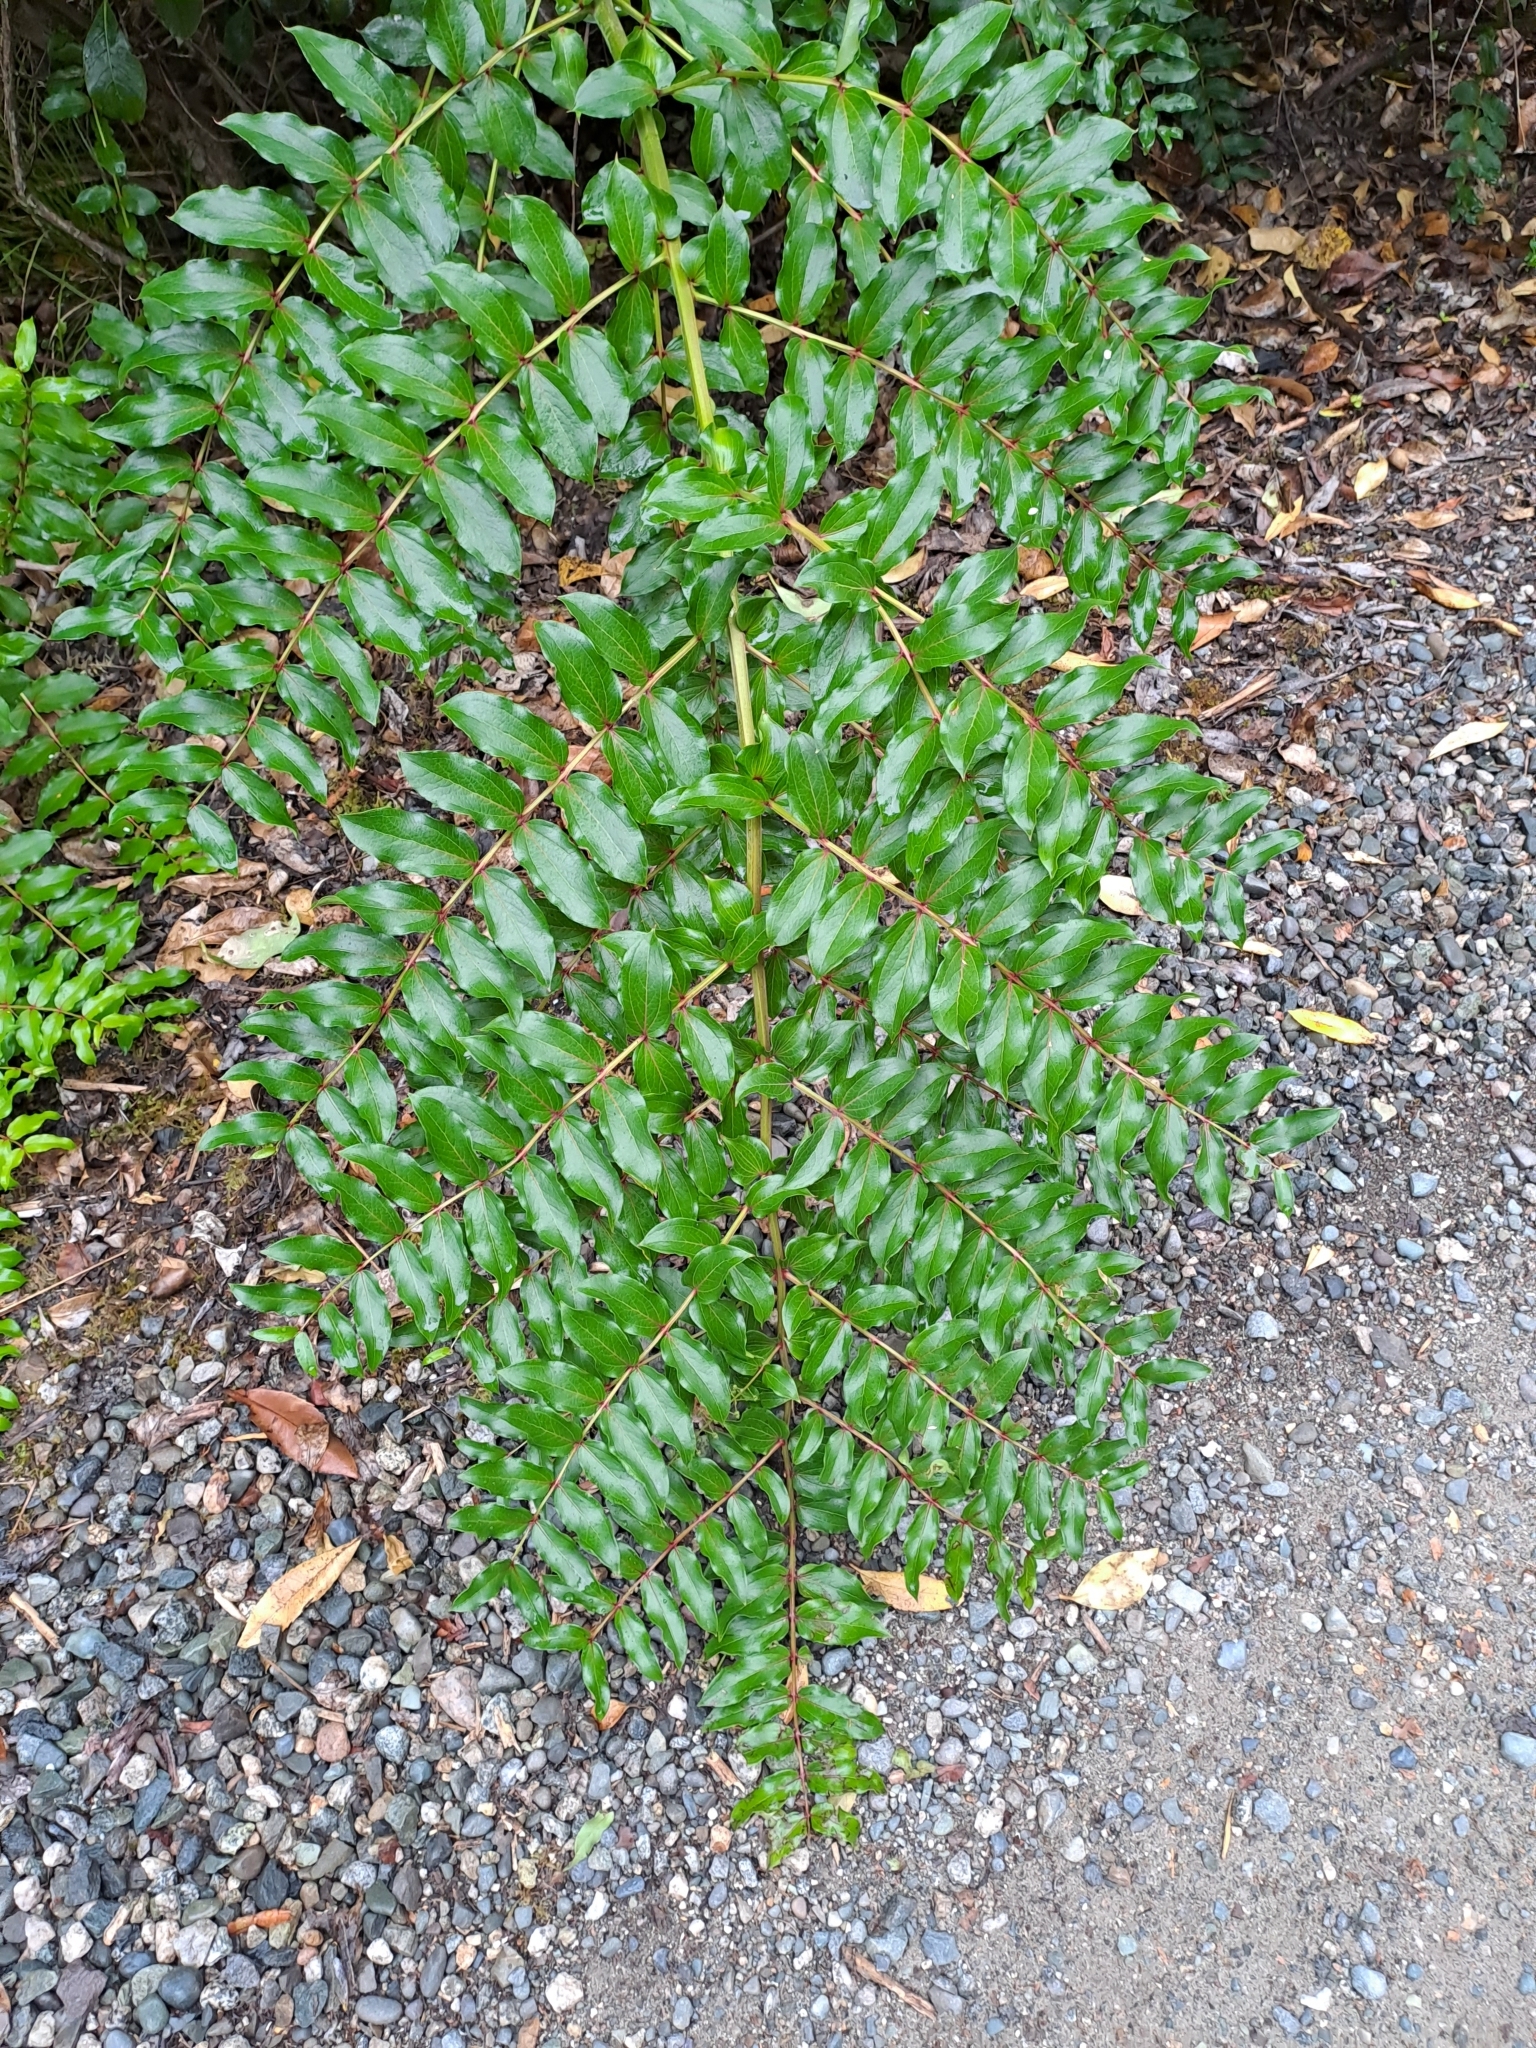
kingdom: Plantae
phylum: Tracheophyta
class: Magnoliopsida
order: Cucurbitales
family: Coriariaceae
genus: Coriaria
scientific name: Coriaria arborea
